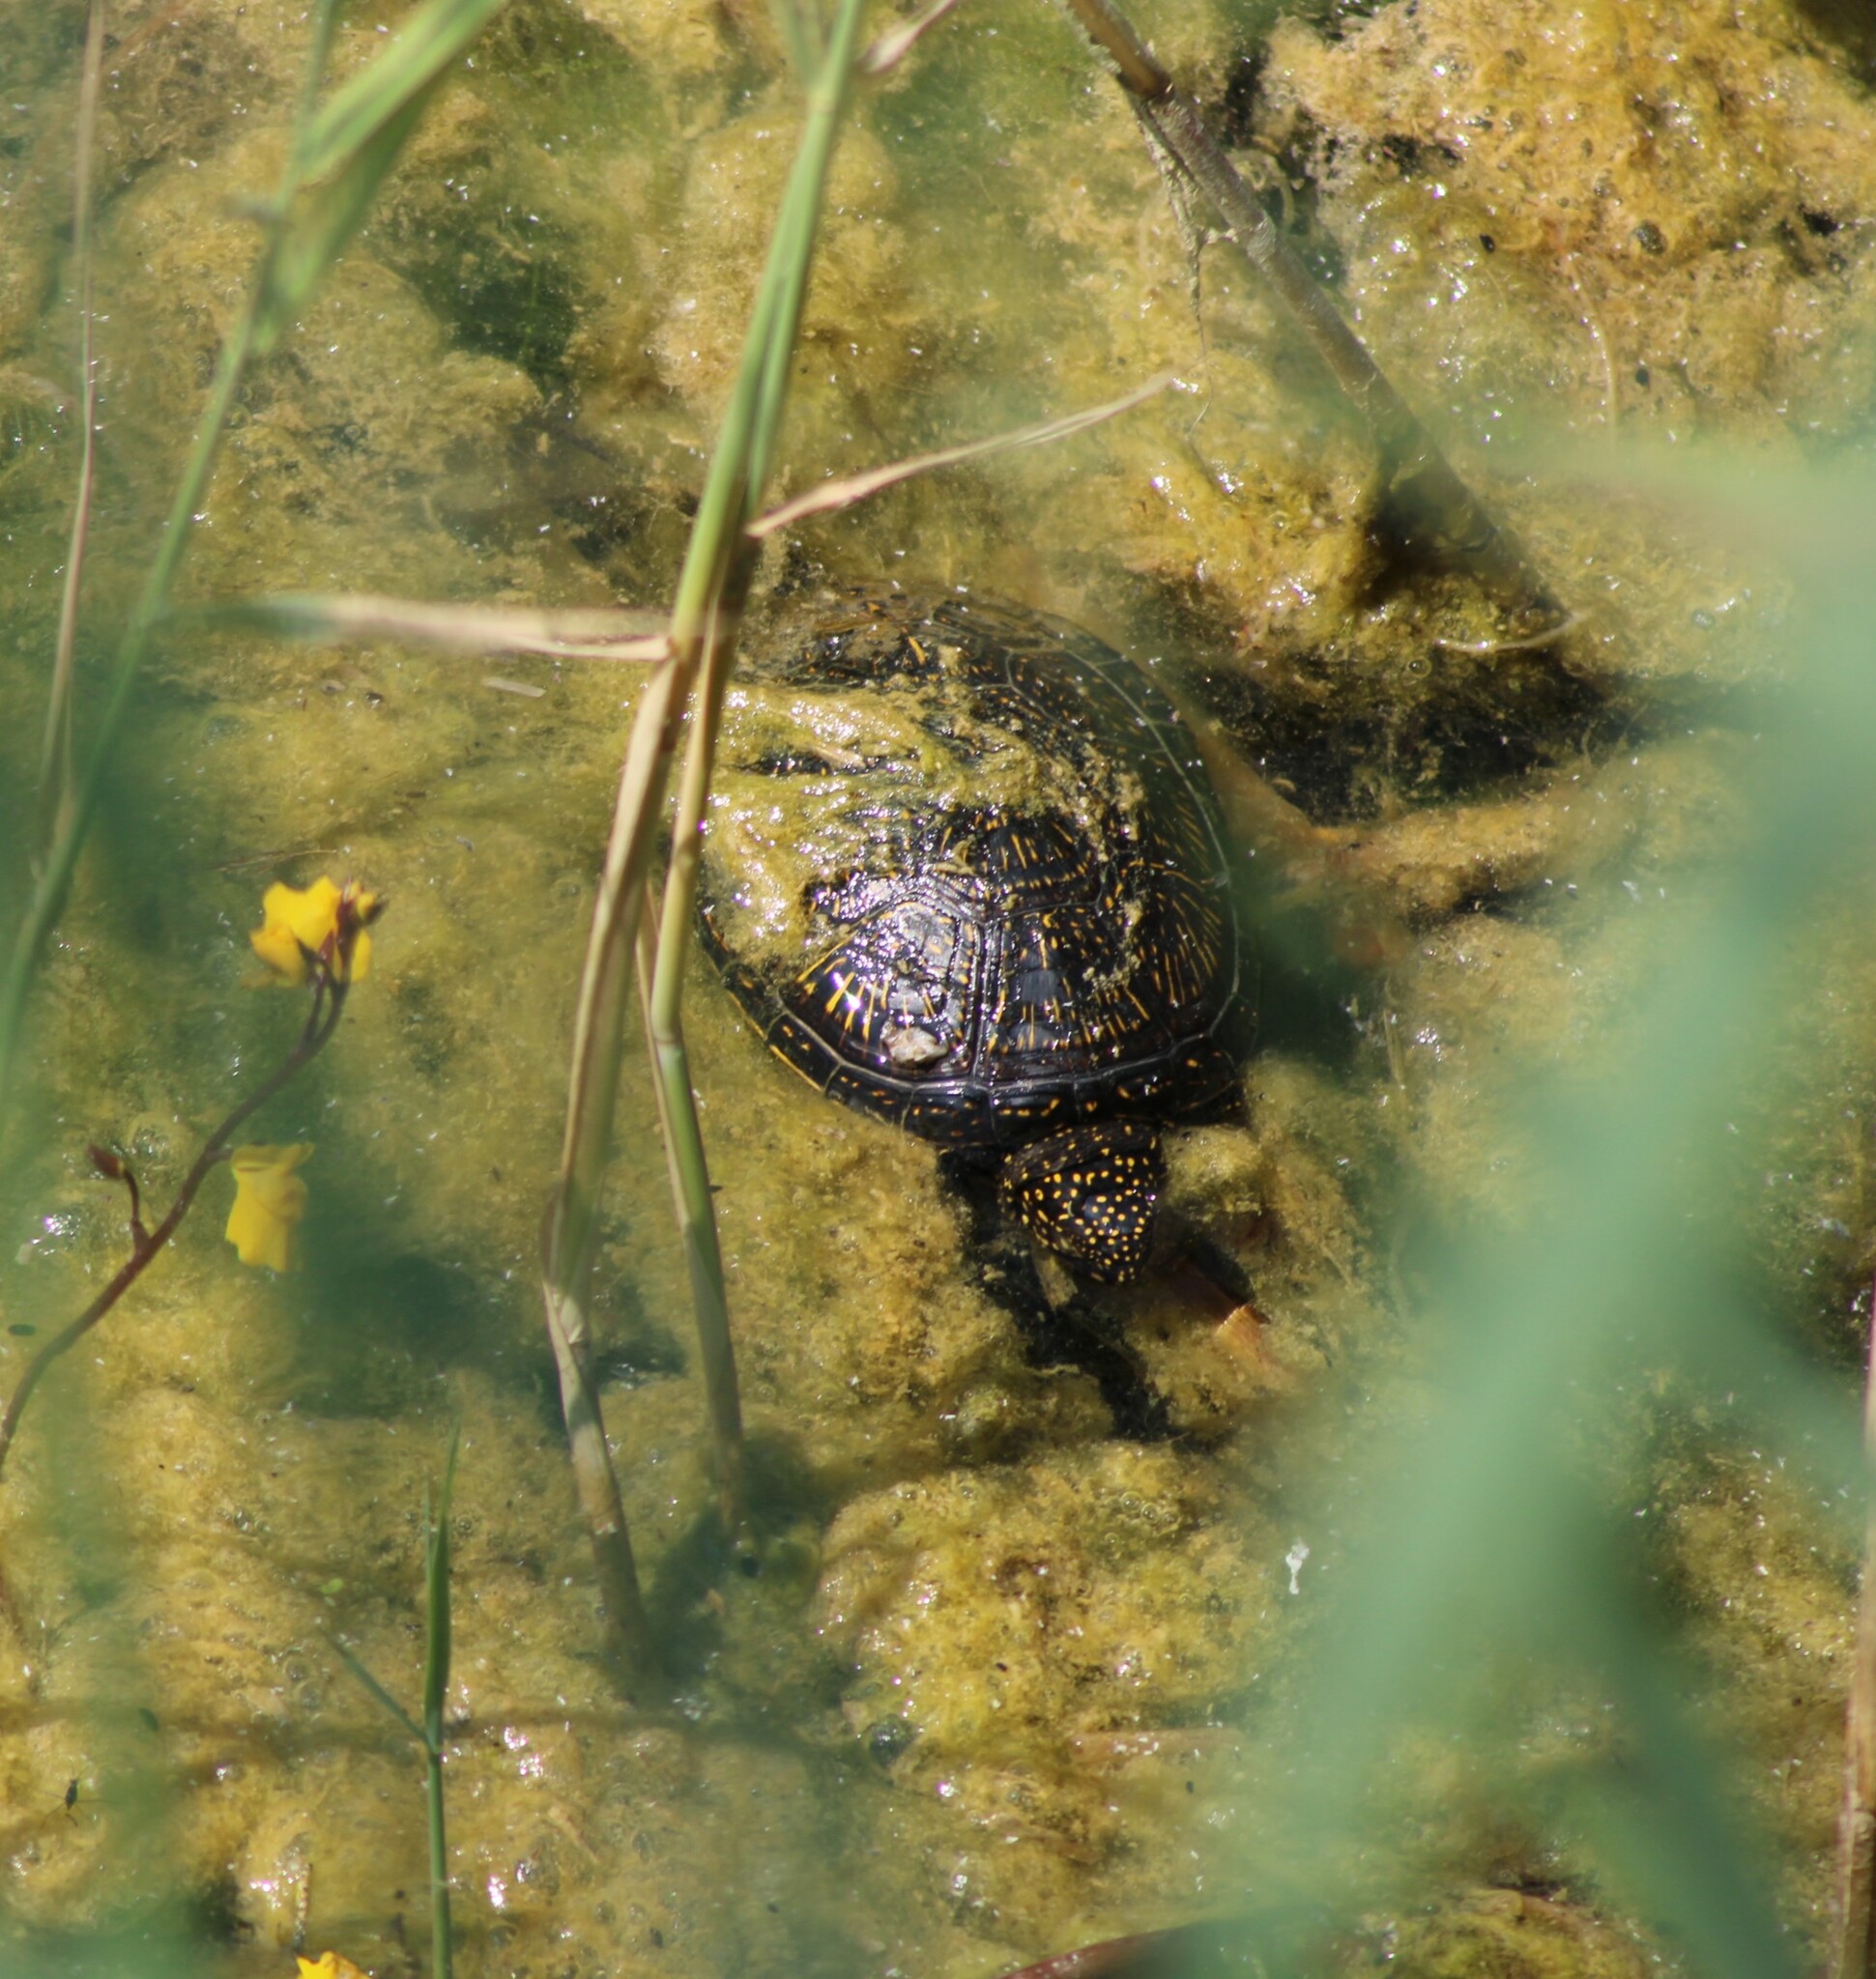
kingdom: Animalia
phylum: Chordata
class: Testudines
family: Emydidae
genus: Emys
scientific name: Emys orbicularis
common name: European pond turtle
